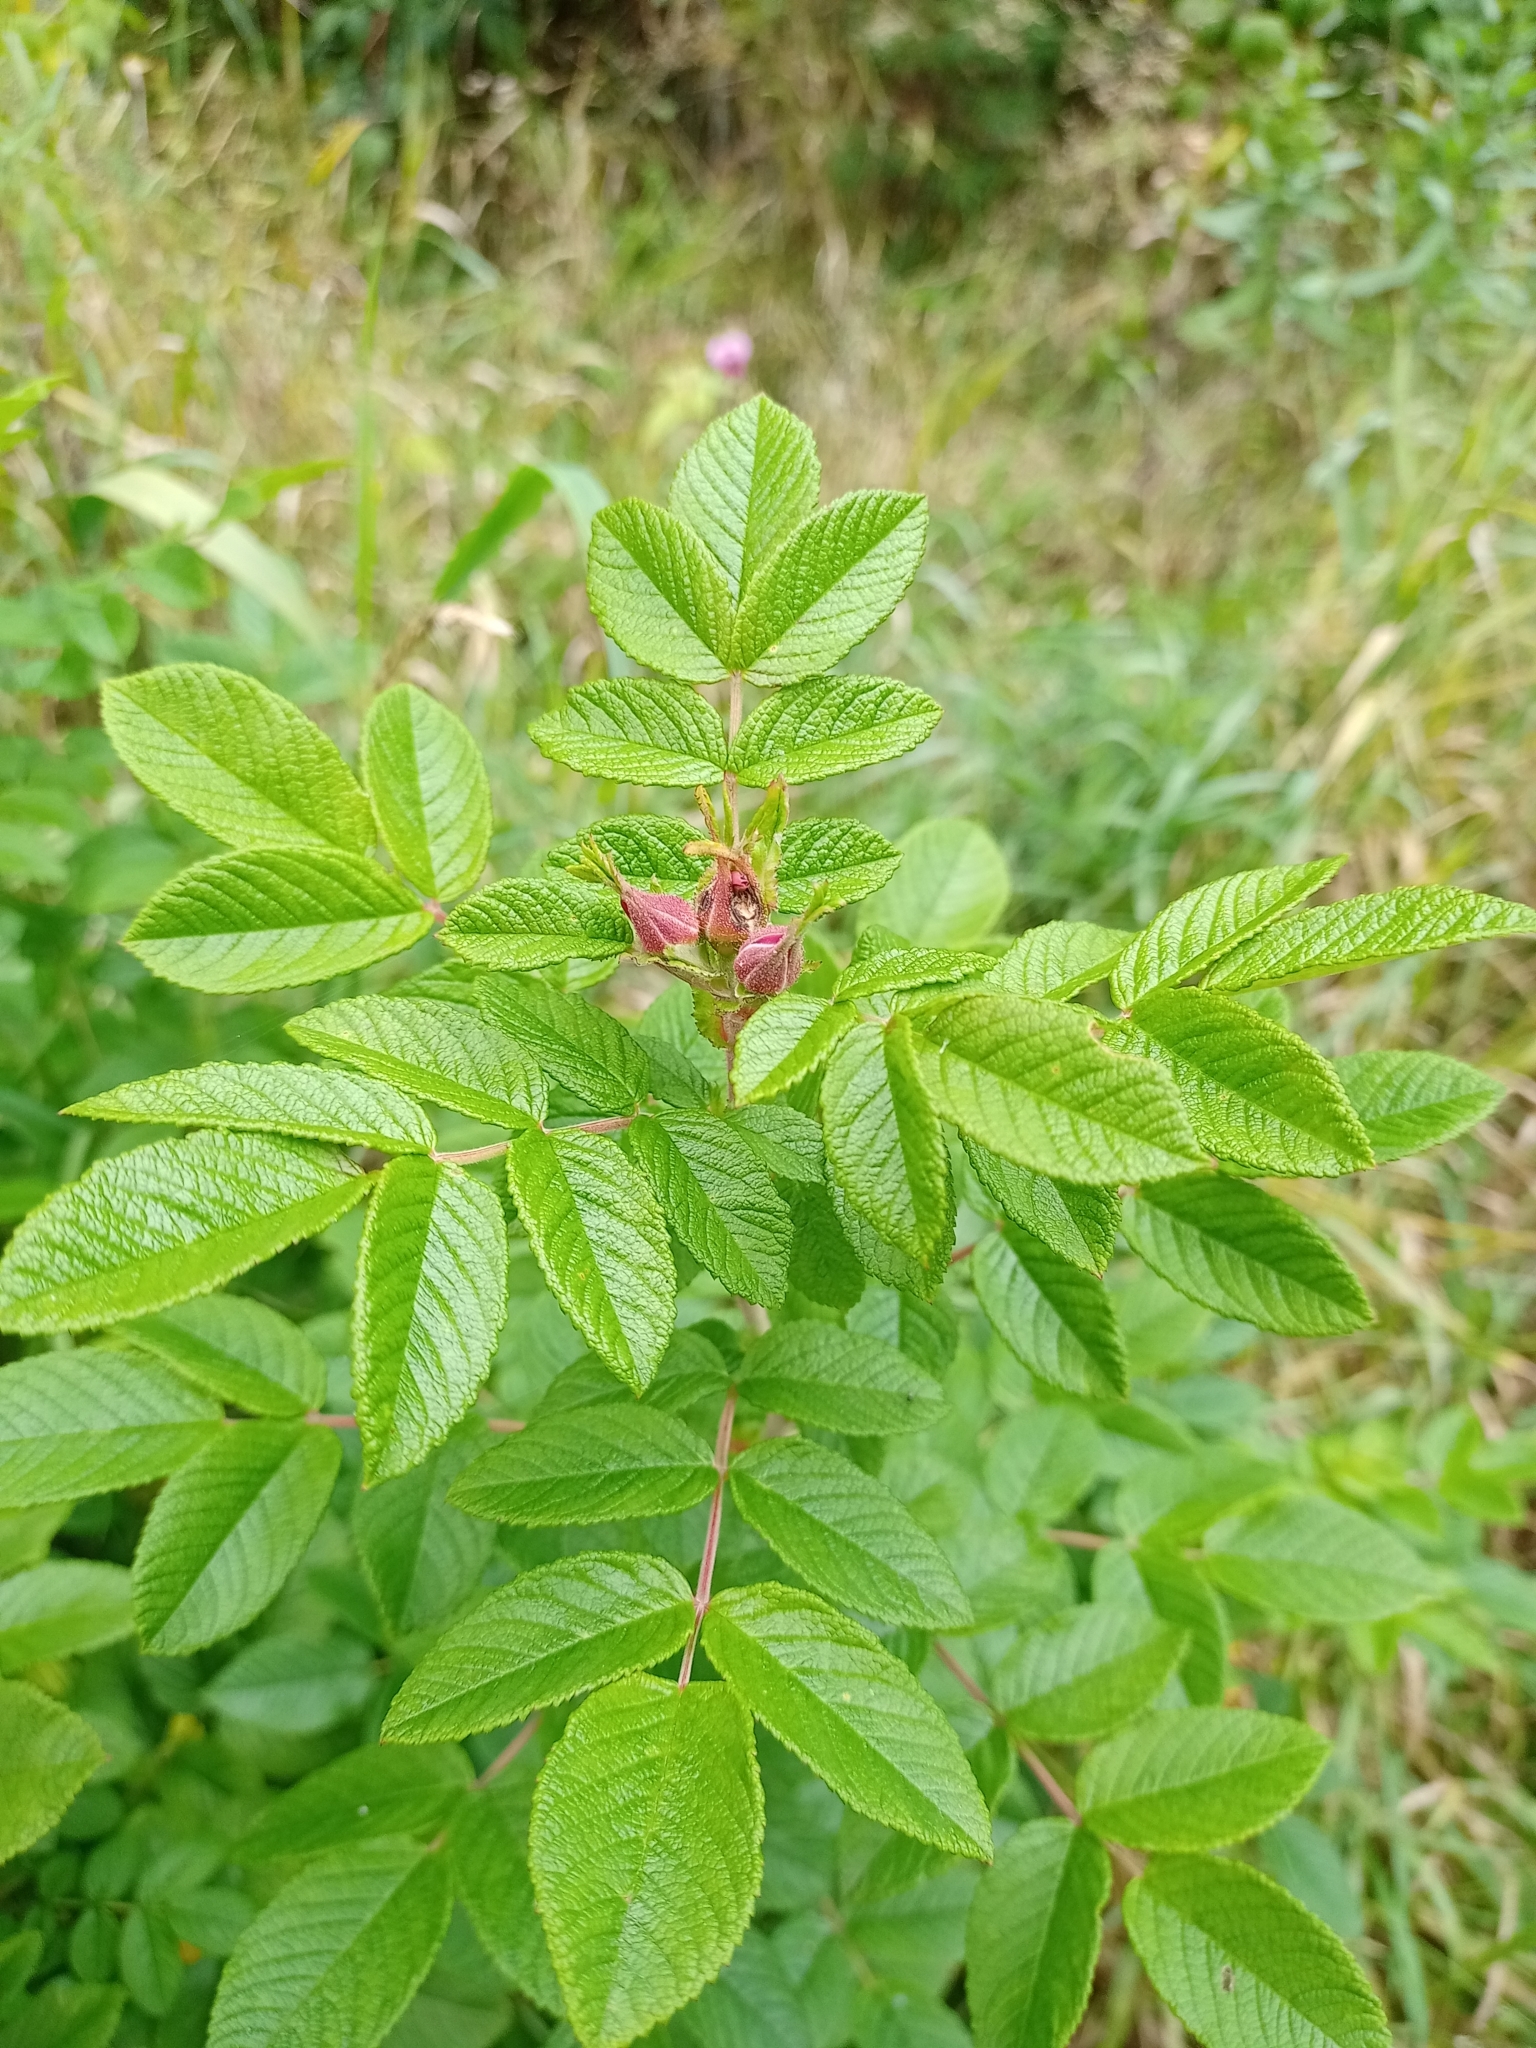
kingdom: Plantae
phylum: Tracheophyta
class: Magnoliopsida
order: Rosales
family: Rosaceae
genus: Rosa
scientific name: Rosa rugosa
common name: Japanese rose
